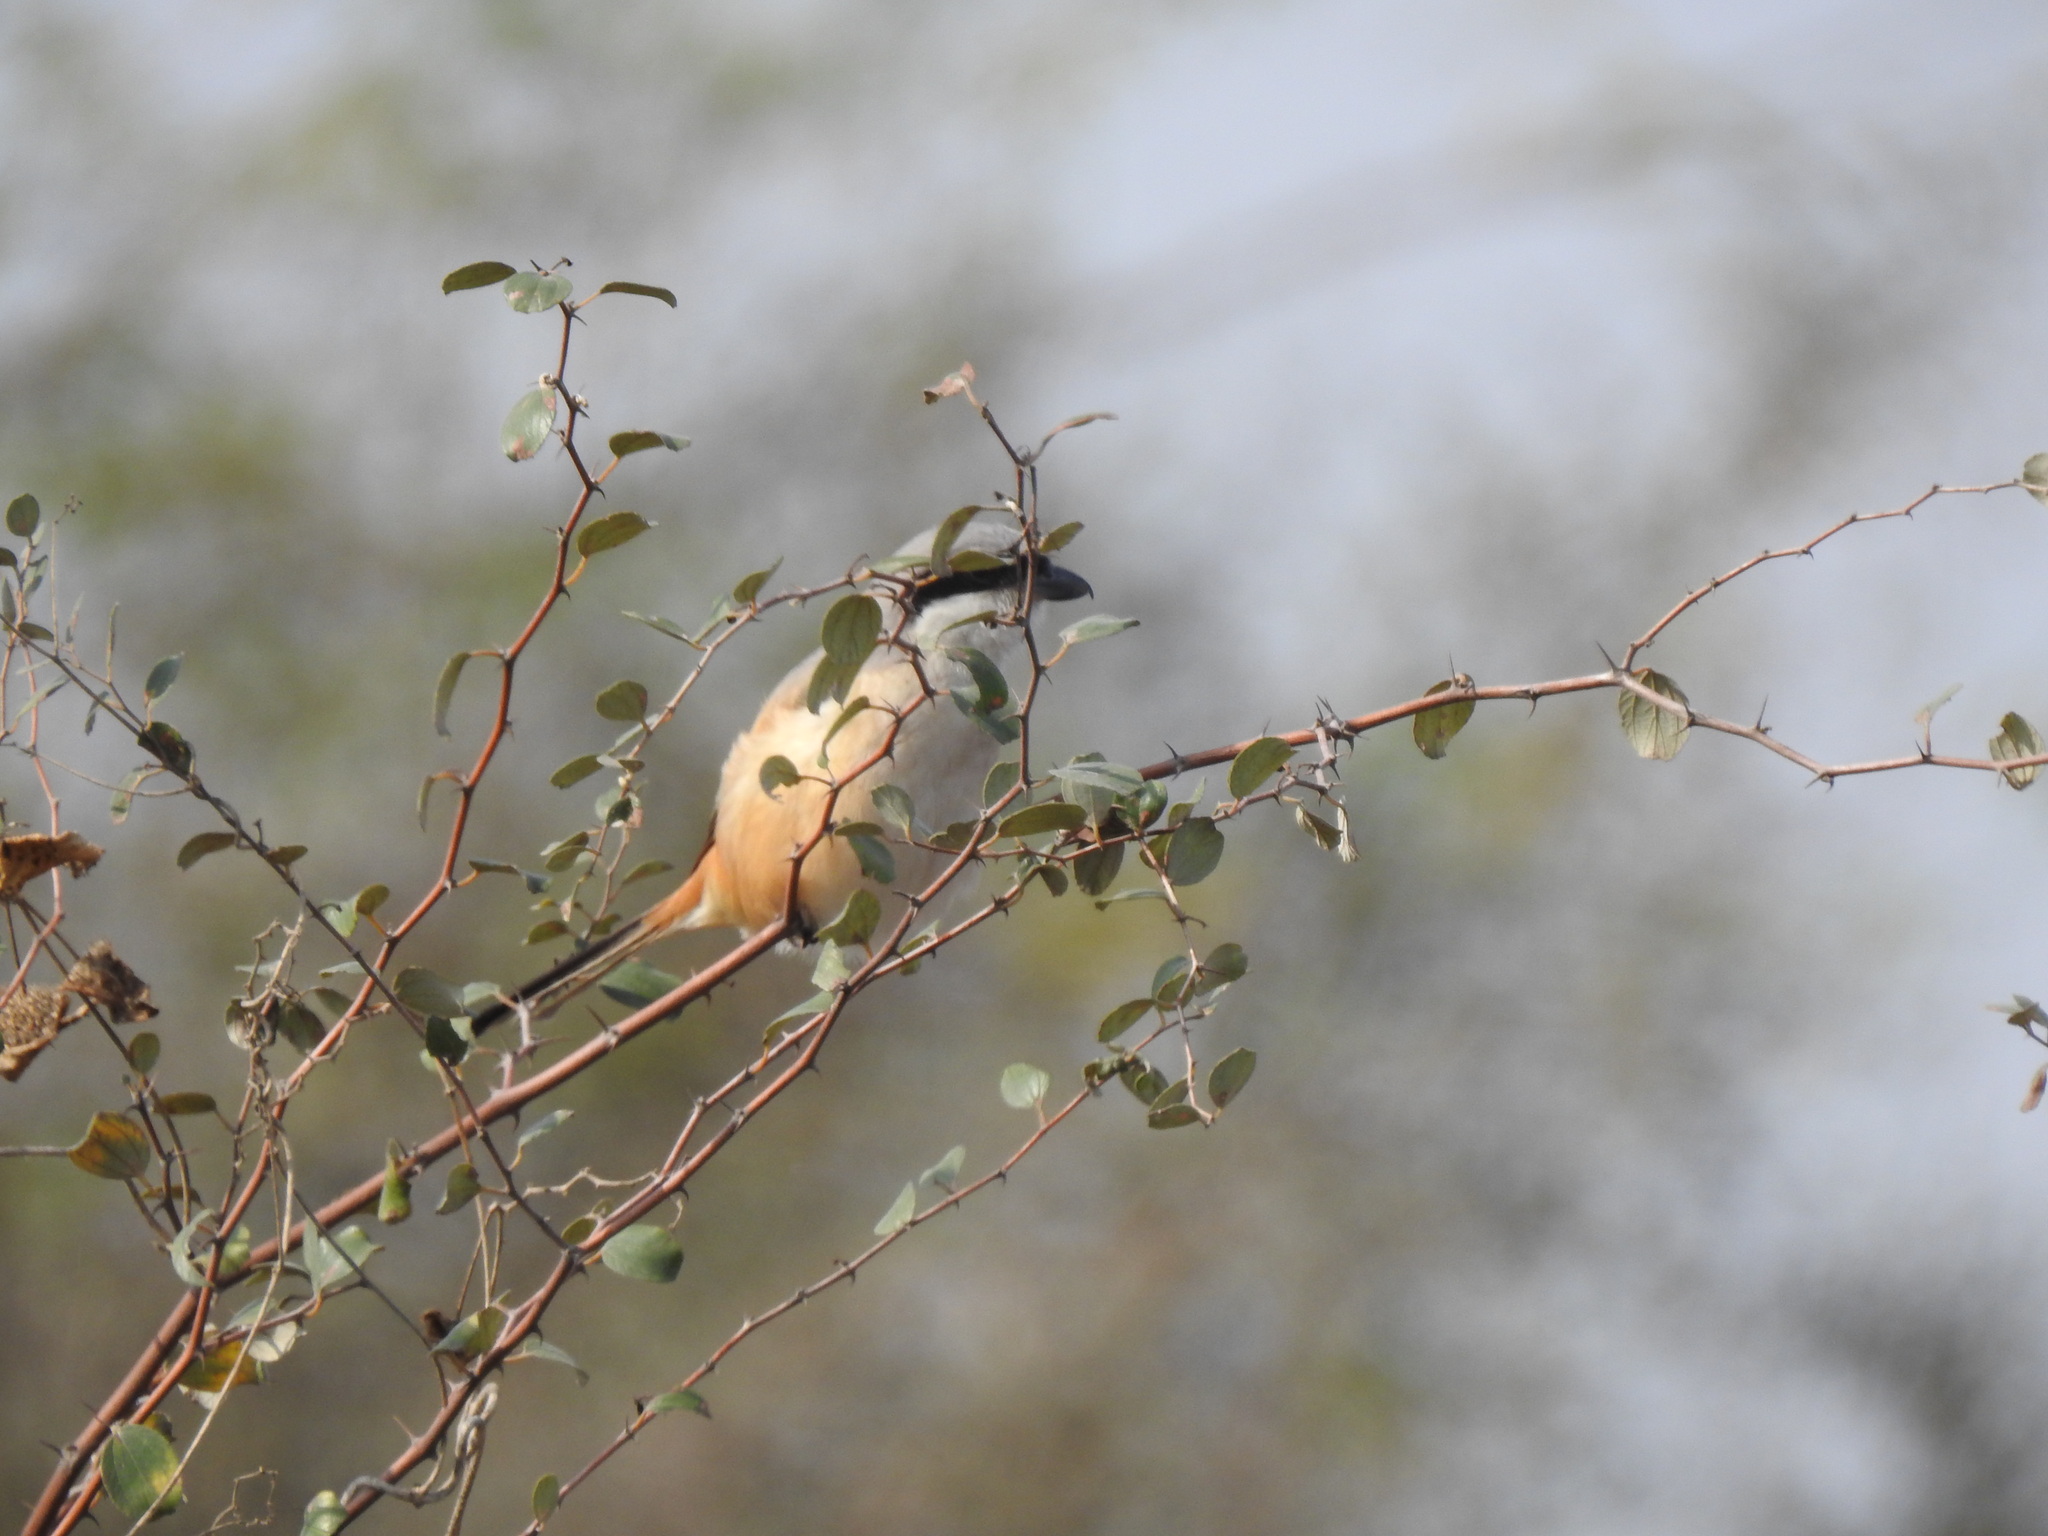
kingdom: Animalia
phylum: Chordata
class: Aves
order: Passeriformes
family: Laniidae
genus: Lanius
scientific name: Lanius schach
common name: Long-tailed shrike
